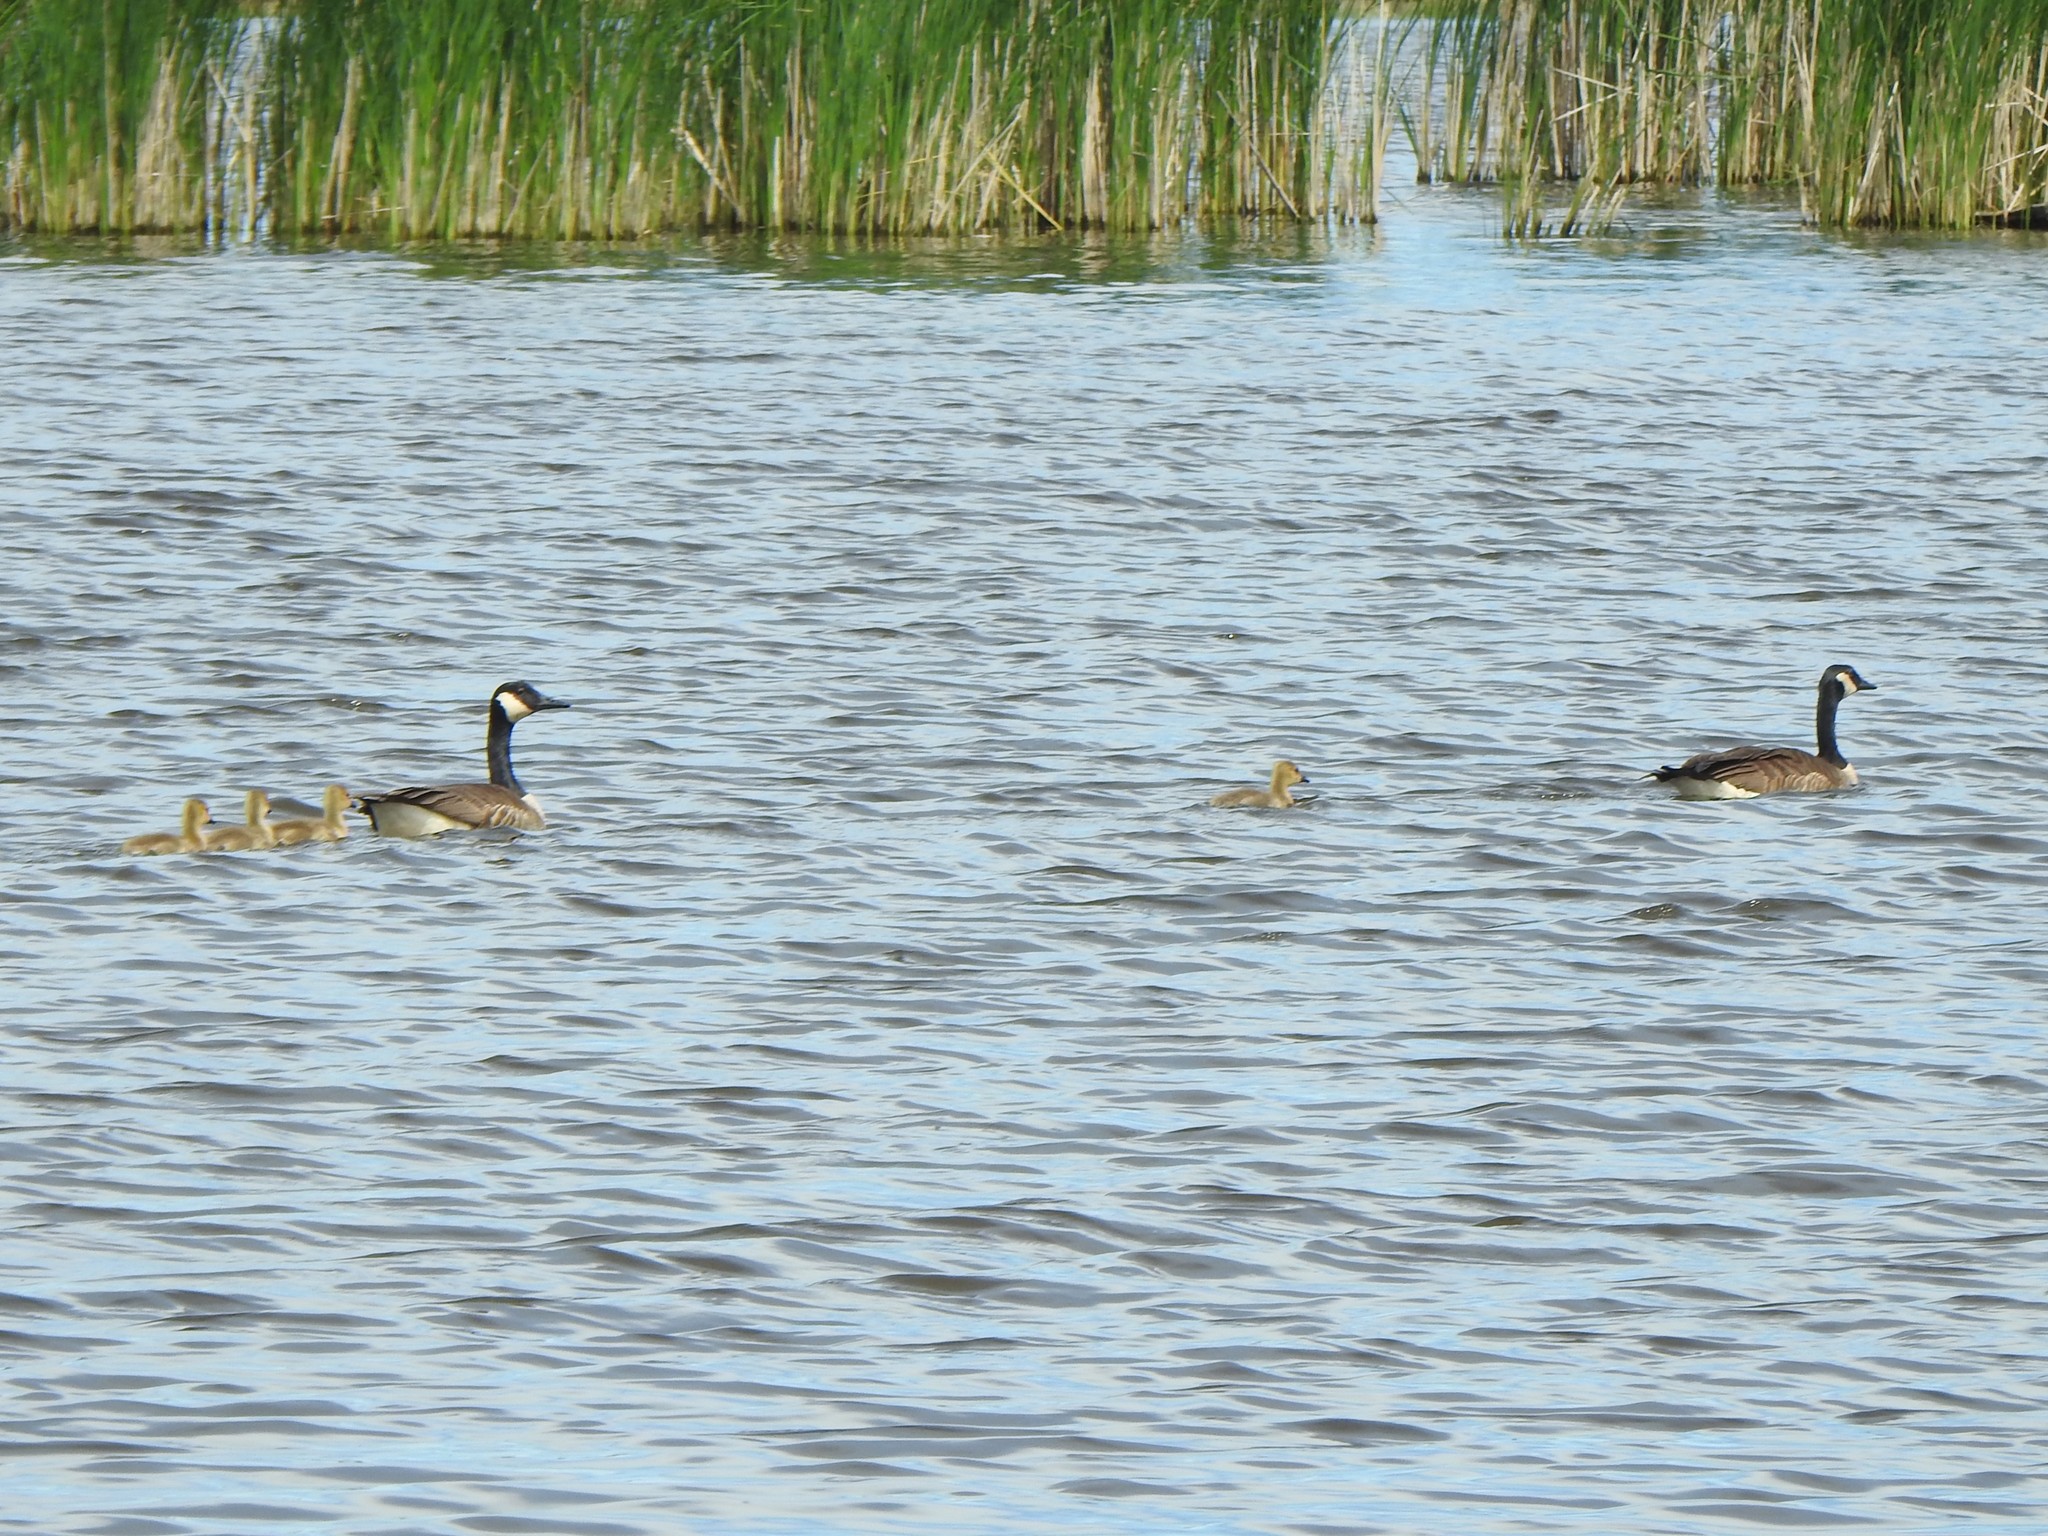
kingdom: Animalia
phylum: Chordata
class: Aves
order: Anseriformes
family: Anatidae
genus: Branta
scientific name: Branta canadensis
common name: Canada goose
